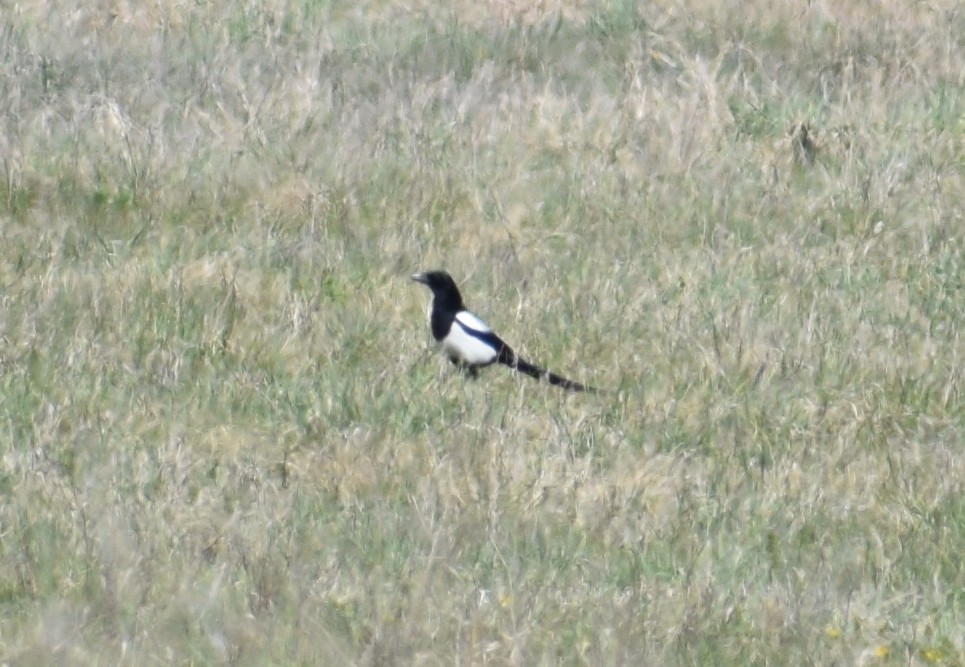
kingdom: Animalia
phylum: Chordata
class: Aves
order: Passeriformes
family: Corvidae
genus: Pica
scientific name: Pica pica
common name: Eurasian magpie
